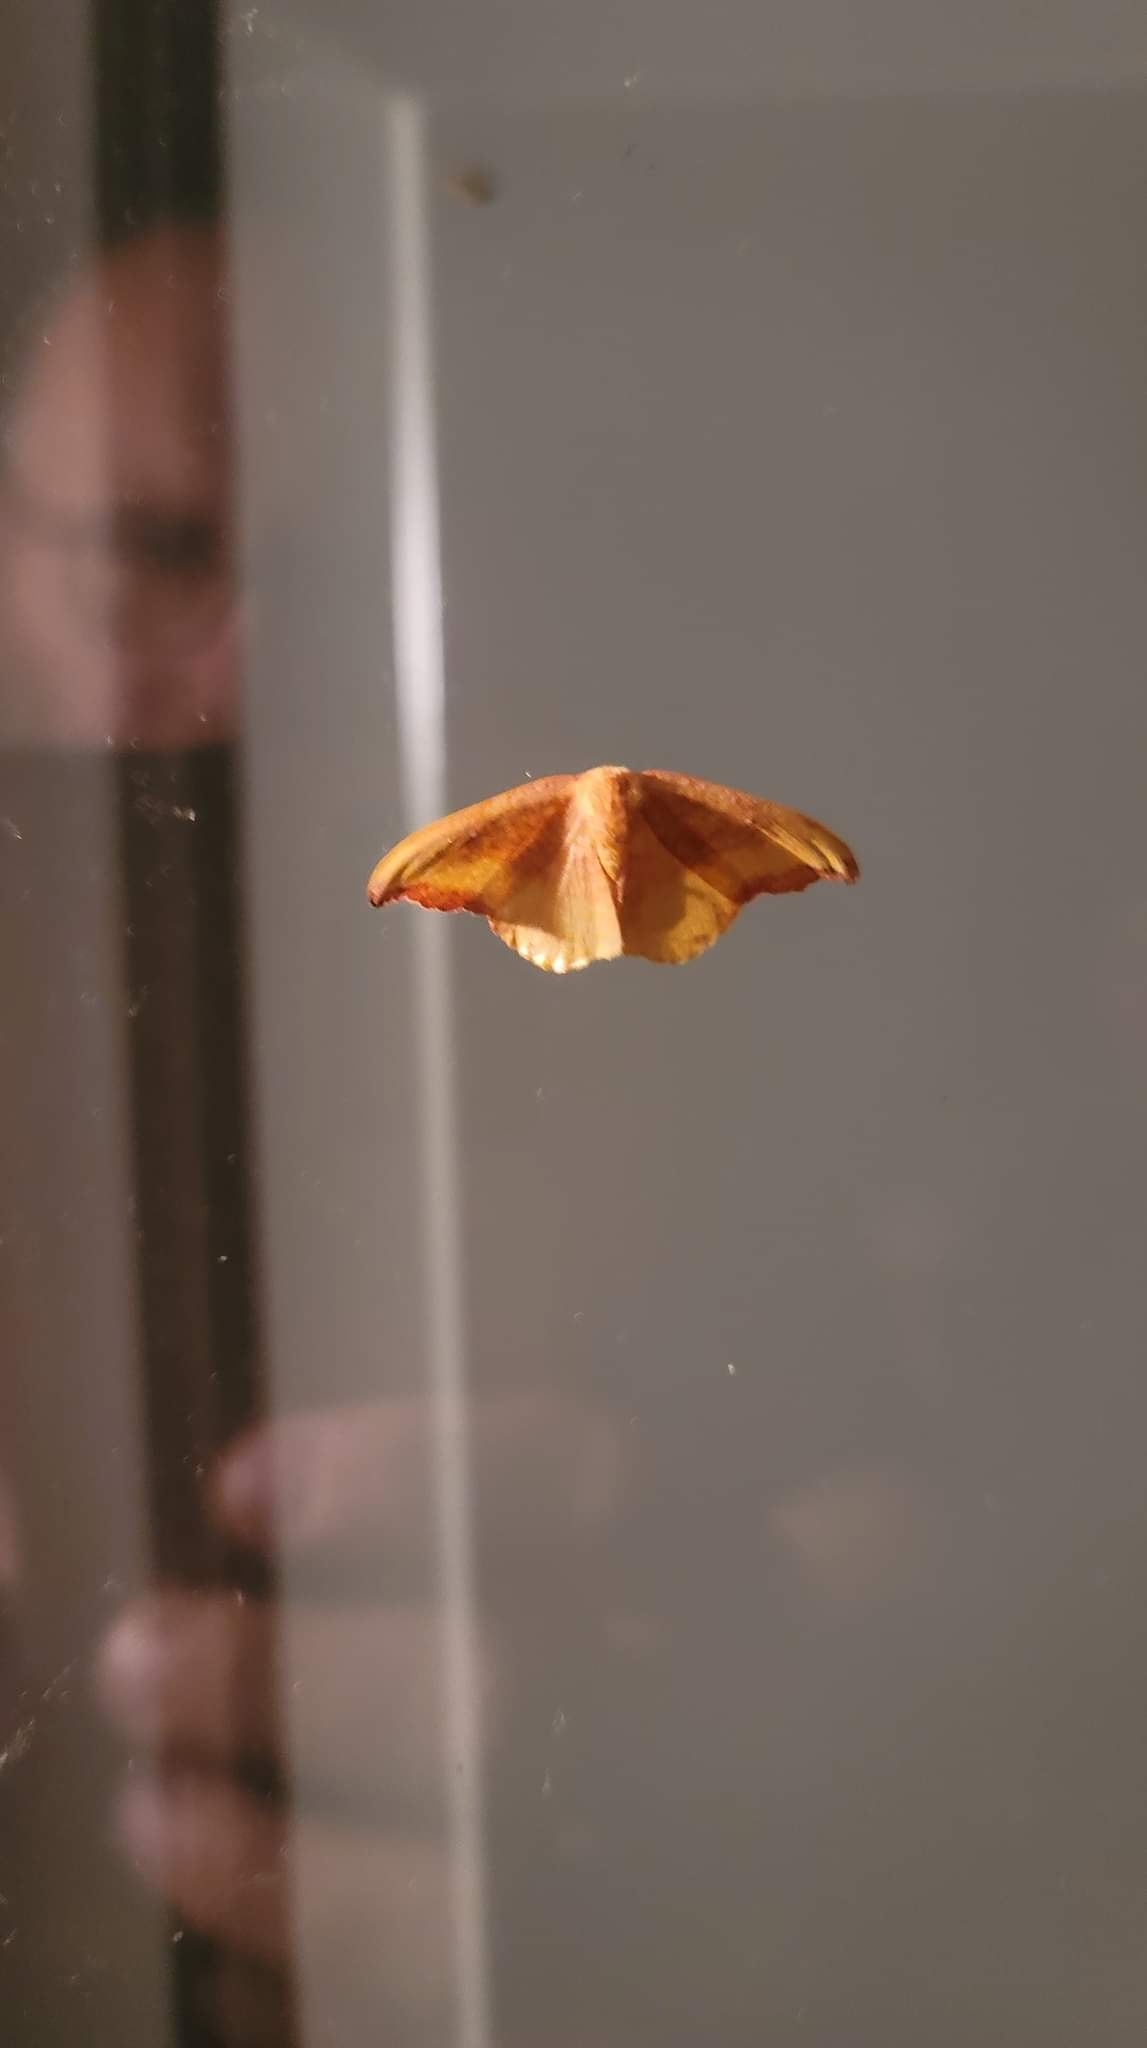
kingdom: Animalia
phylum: Arthropoda
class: Insecta
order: Lepidoptera
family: Drepanidae
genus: Oreta
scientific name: Oreta rosea
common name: Rose hooktip
